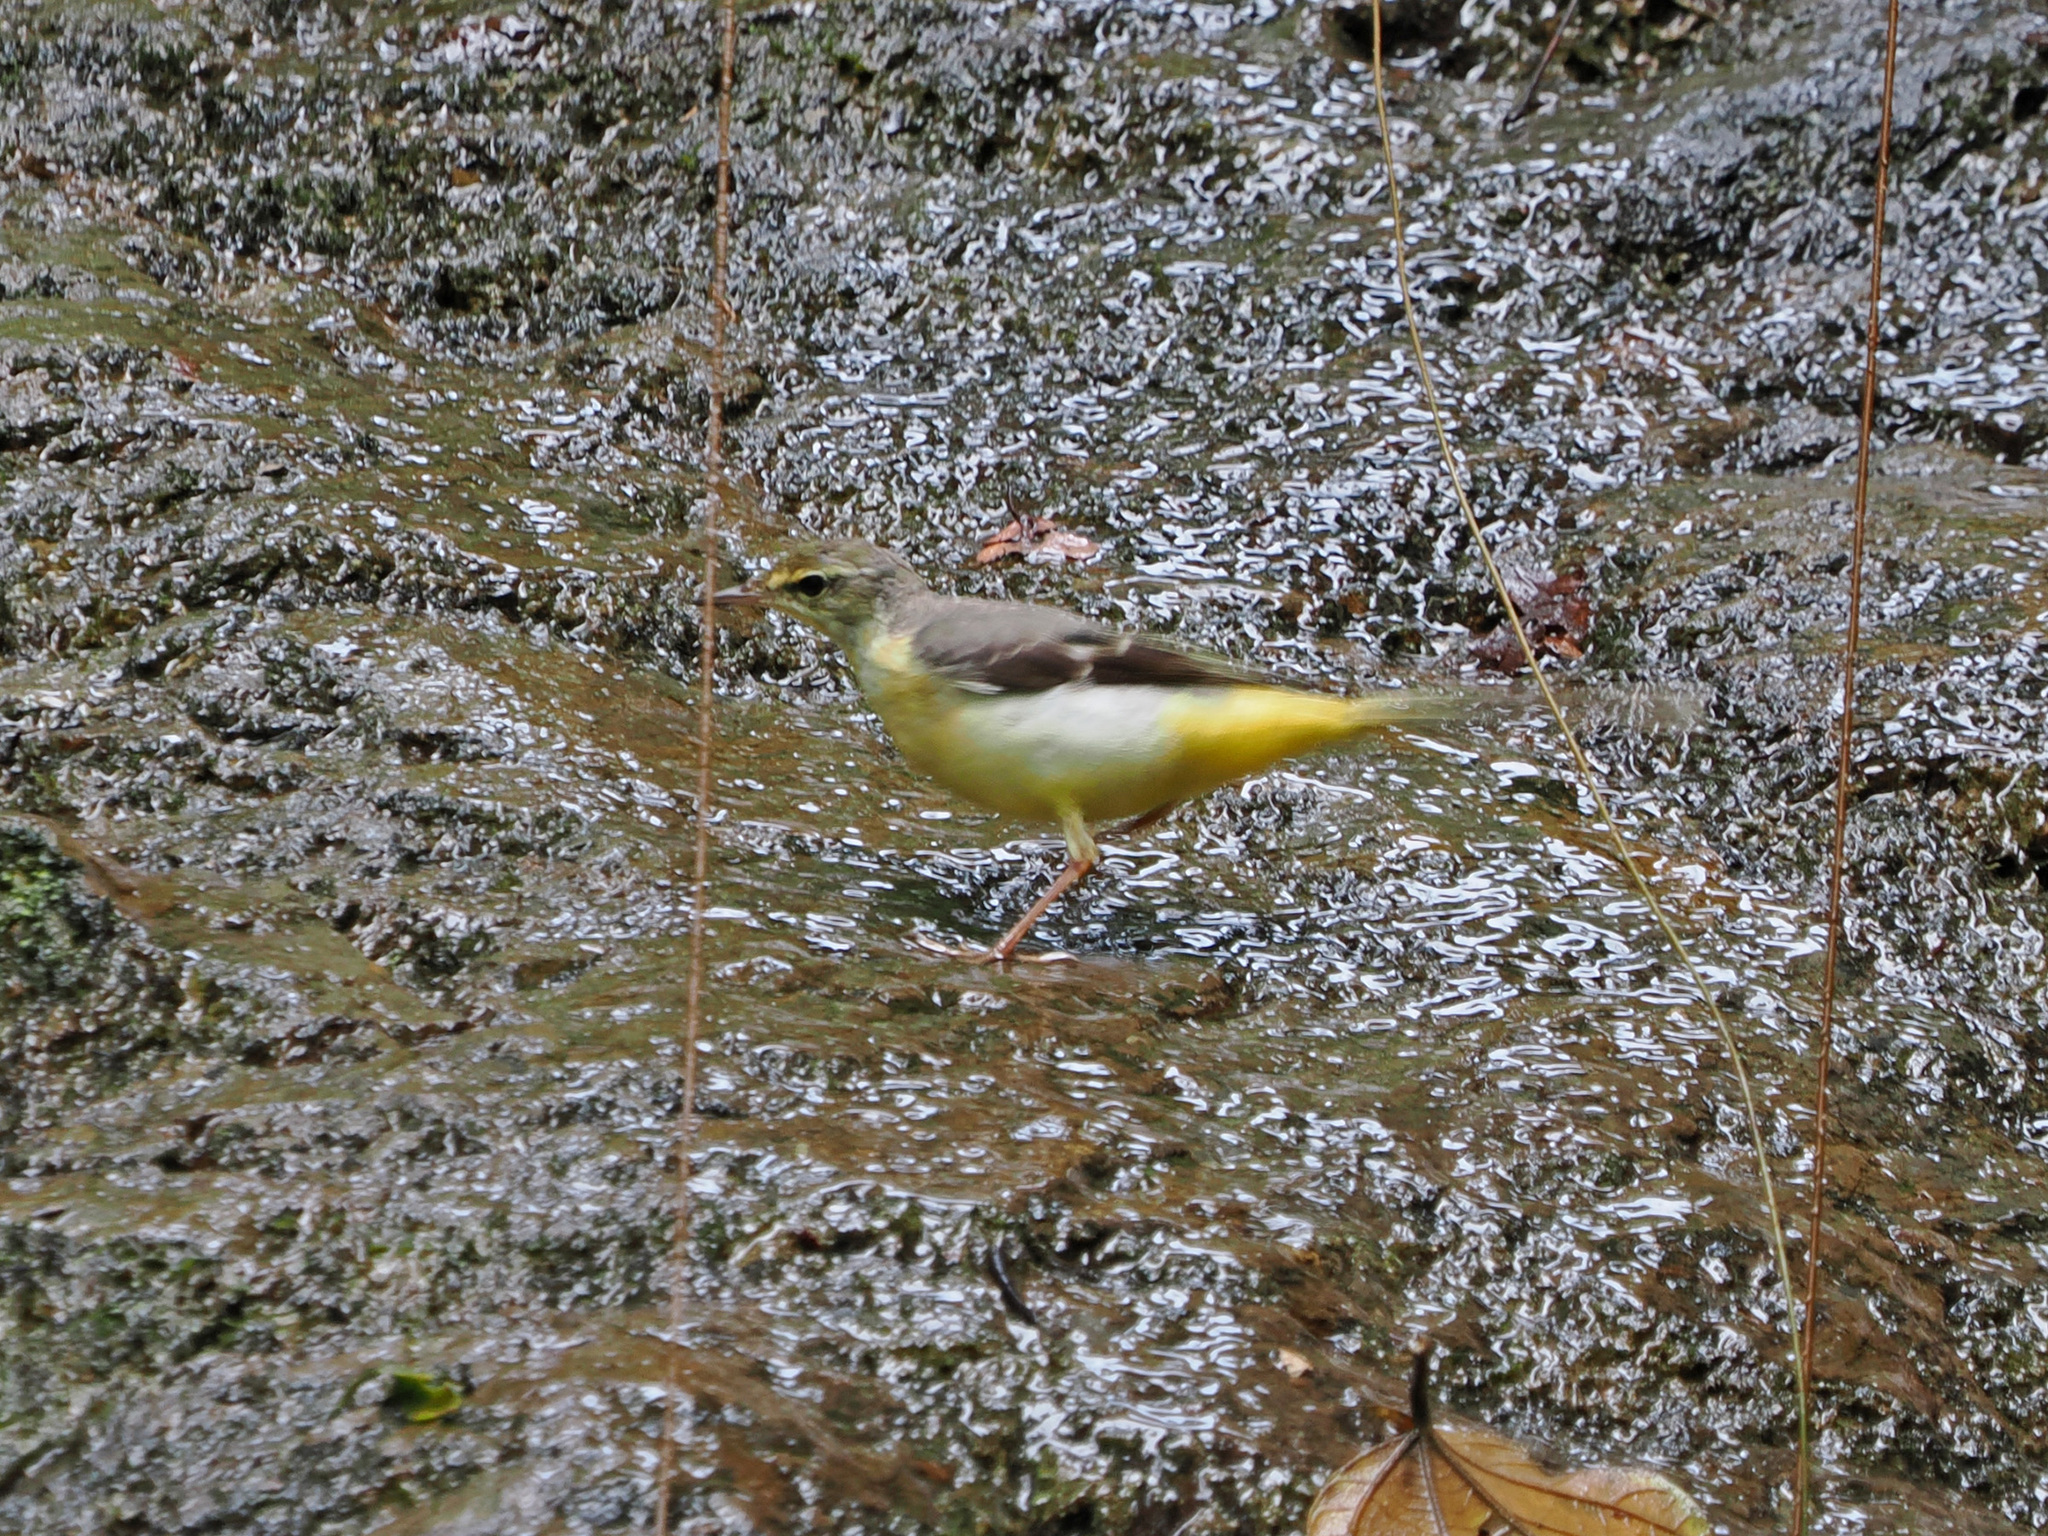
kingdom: Animalia
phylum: Chordata
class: Aves
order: Passeriformes
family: Motacillidae
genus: Motacilla
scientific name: Motacilla cinerea
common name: Grey wagtail
